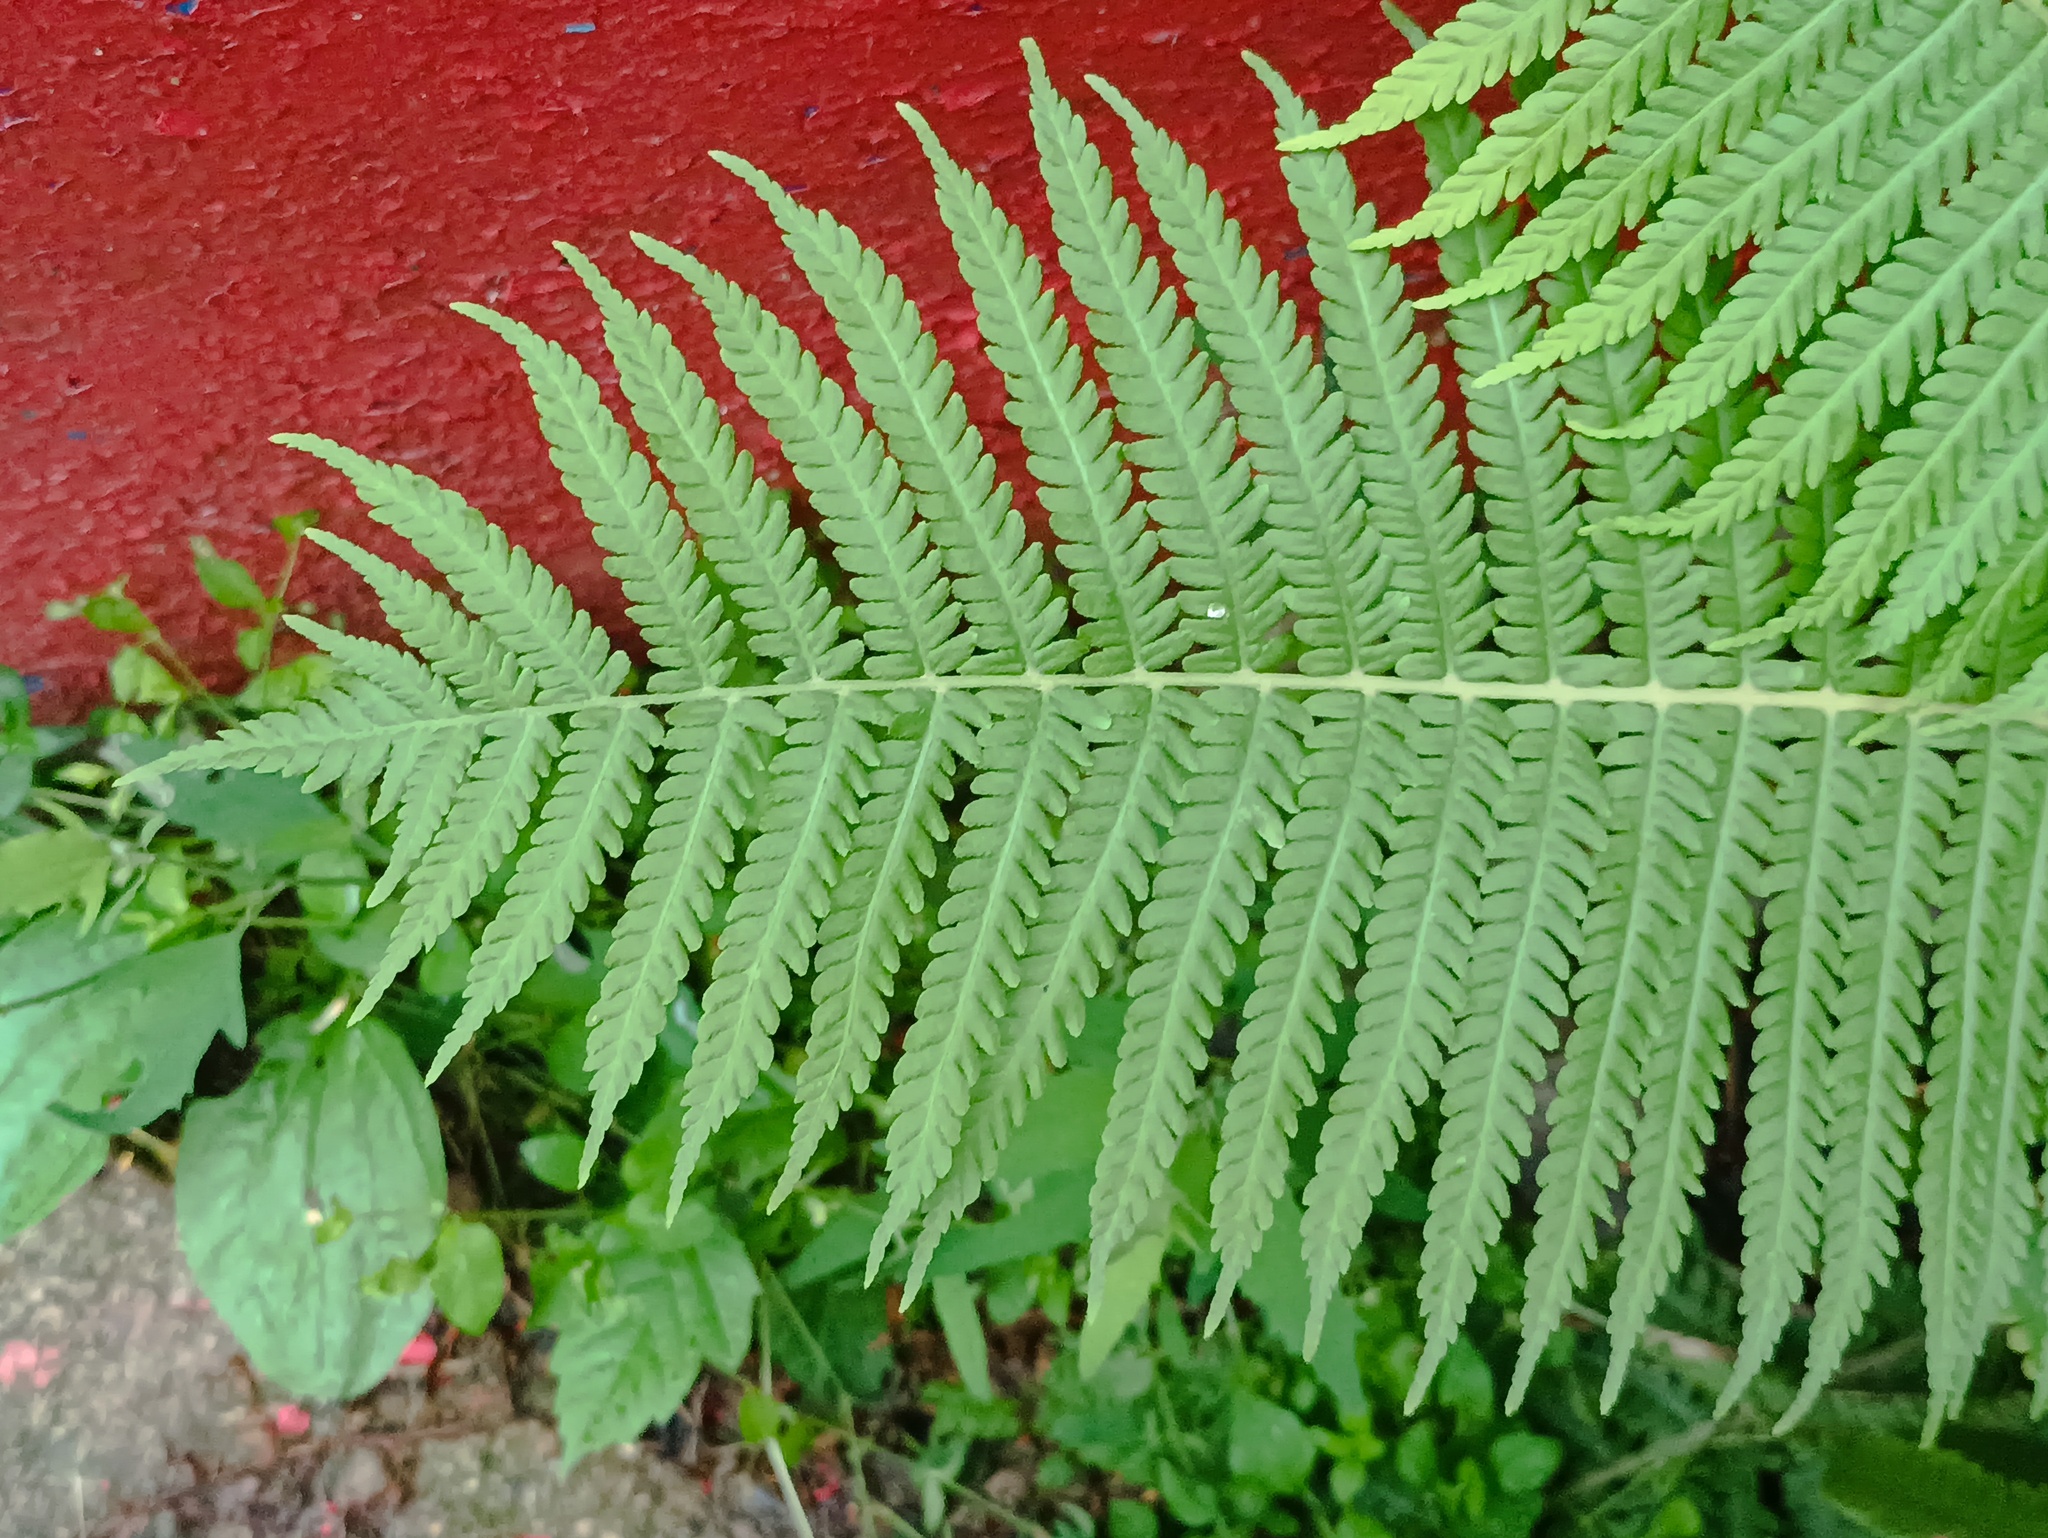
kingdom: Plantae
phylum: Tracheophyta
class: Polypodiopsida
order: Polypodiales
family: Onocleaceae
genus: Matteuccia
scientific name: Matteuccia struthiopteris
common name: Ostrich fern
